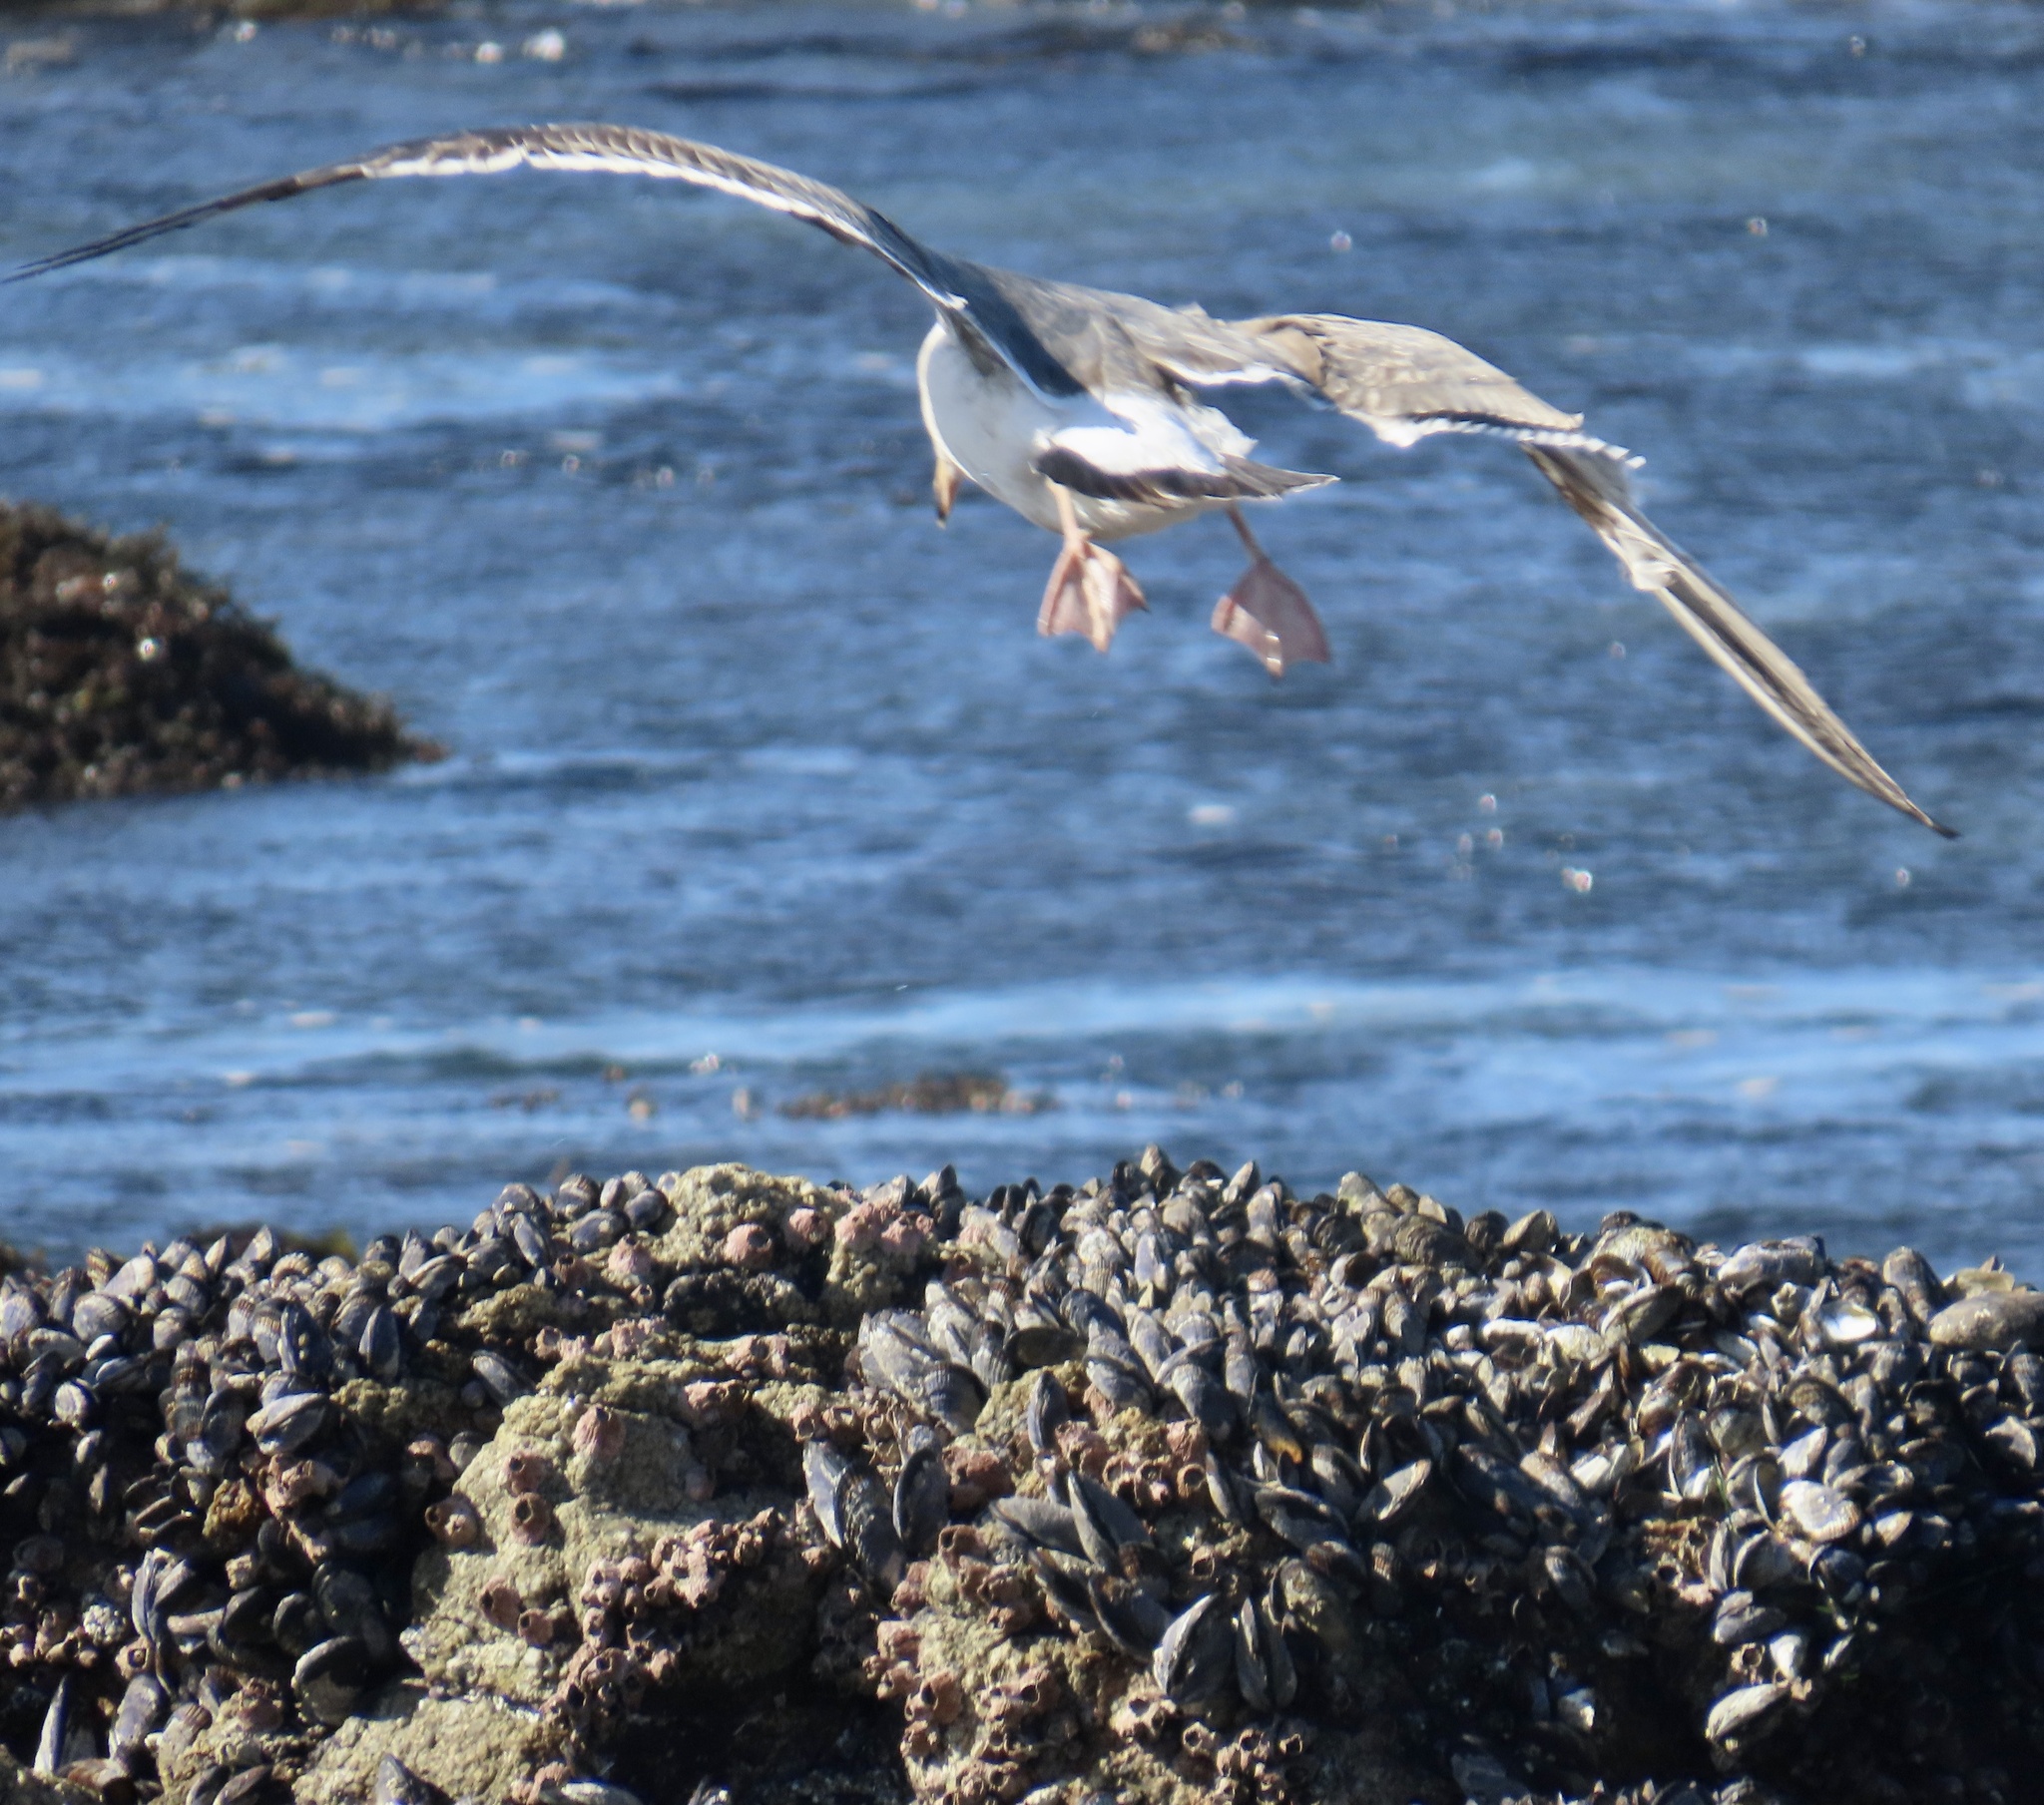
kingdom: Animalia
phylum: Chordata
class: Aves
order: Charadriiformes
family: Laridae
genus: Larus
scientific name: Larus occidentalis
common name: Western gull
